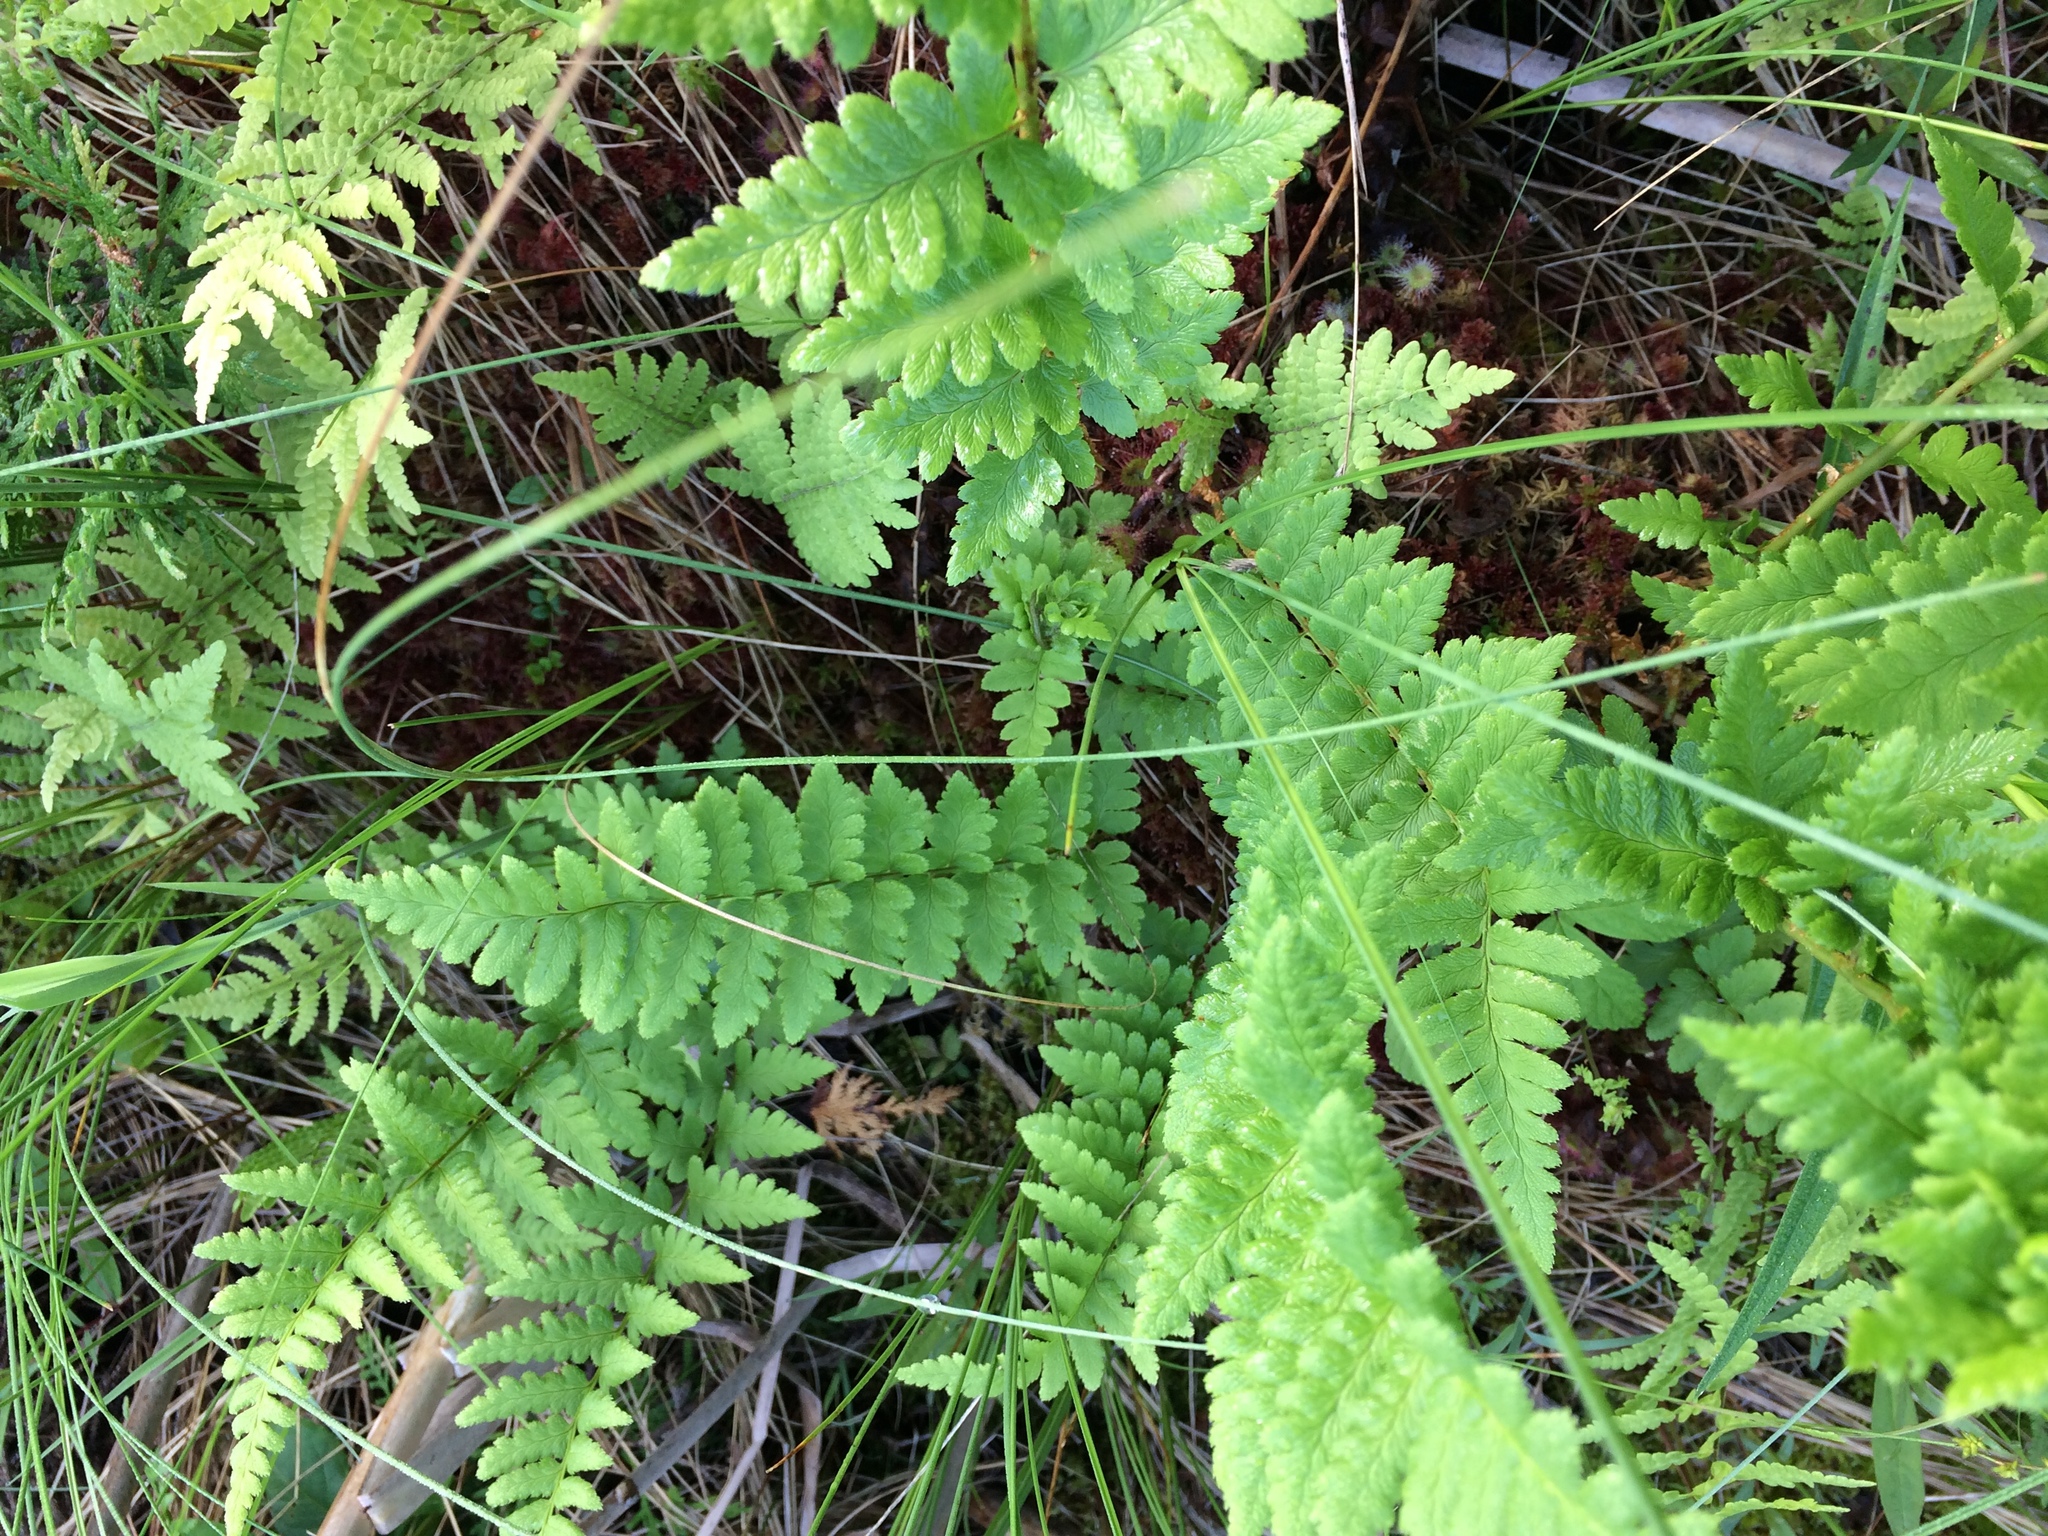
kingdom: Plantae
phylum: Tracheophyta
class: Polypodiopsida
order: Polypodiales
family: Dryopteridaceae
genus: Dryopteris
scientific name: Dryopteris cristata
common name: Crested wood fern
